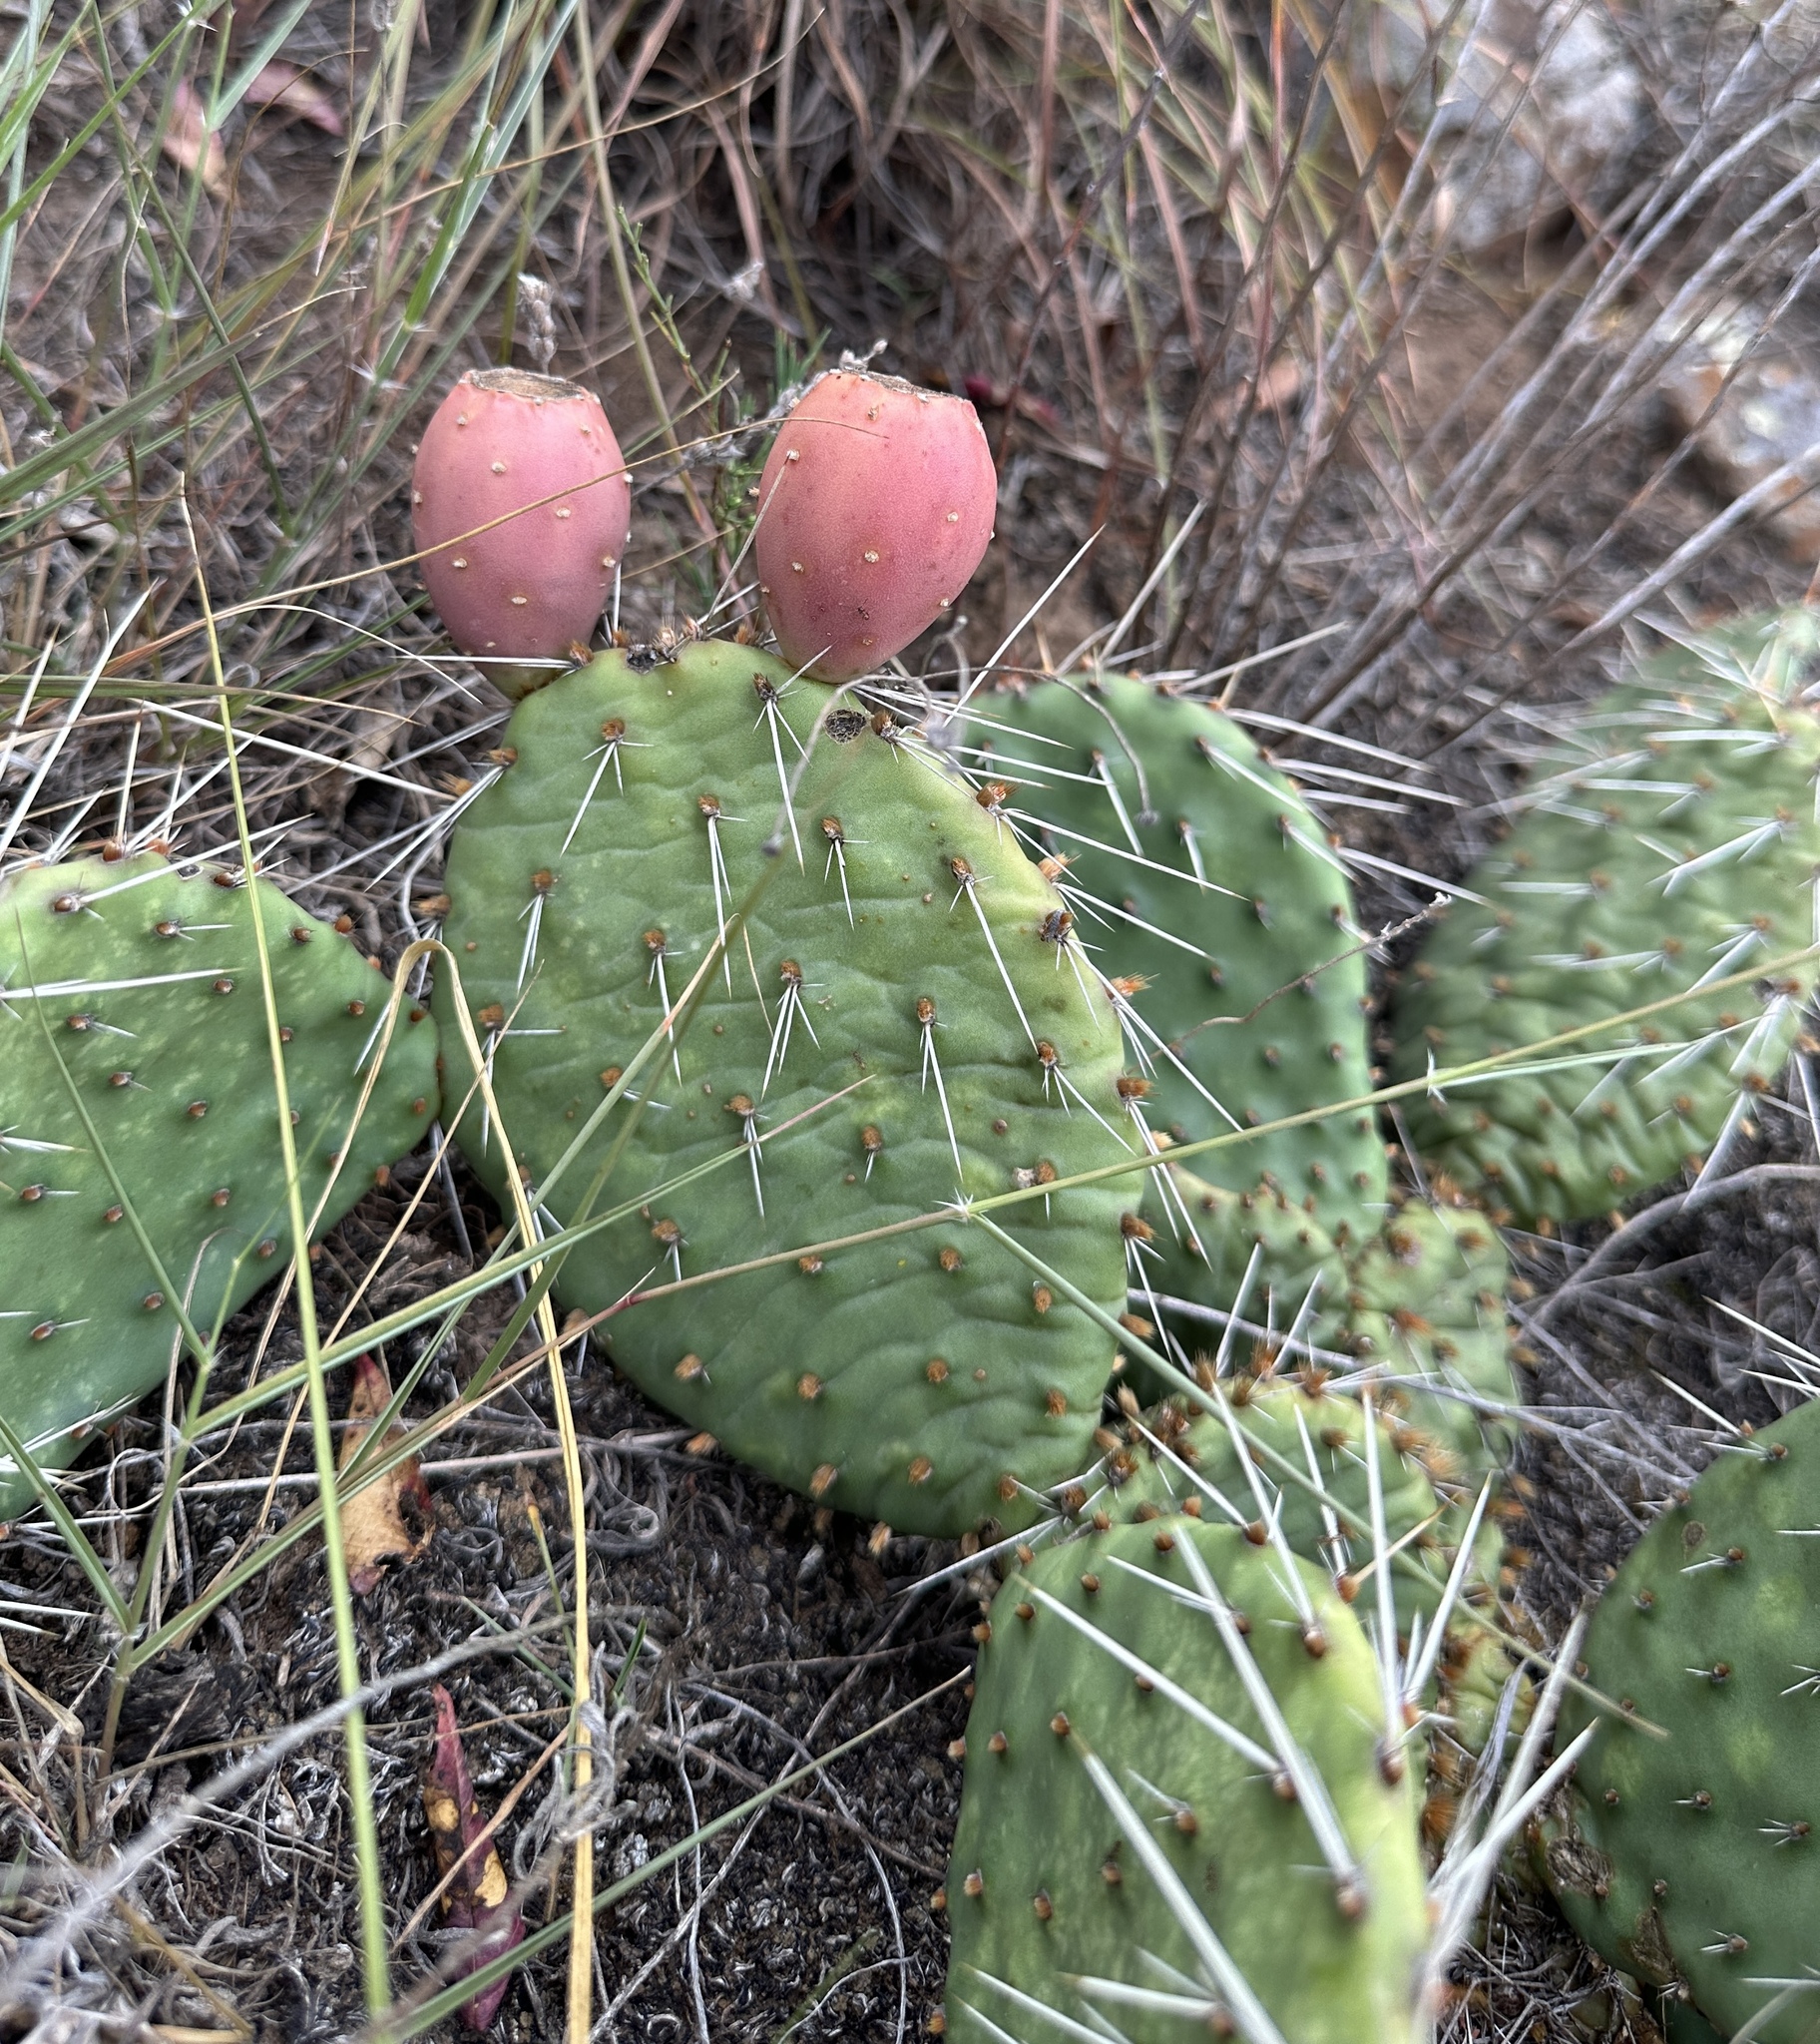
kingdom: Plantae
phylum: Tracheophyta
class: Magnoliopsida
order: Caryophyllales
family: Cactaceae
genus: Opuntia
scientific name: Opuntia cymochila
